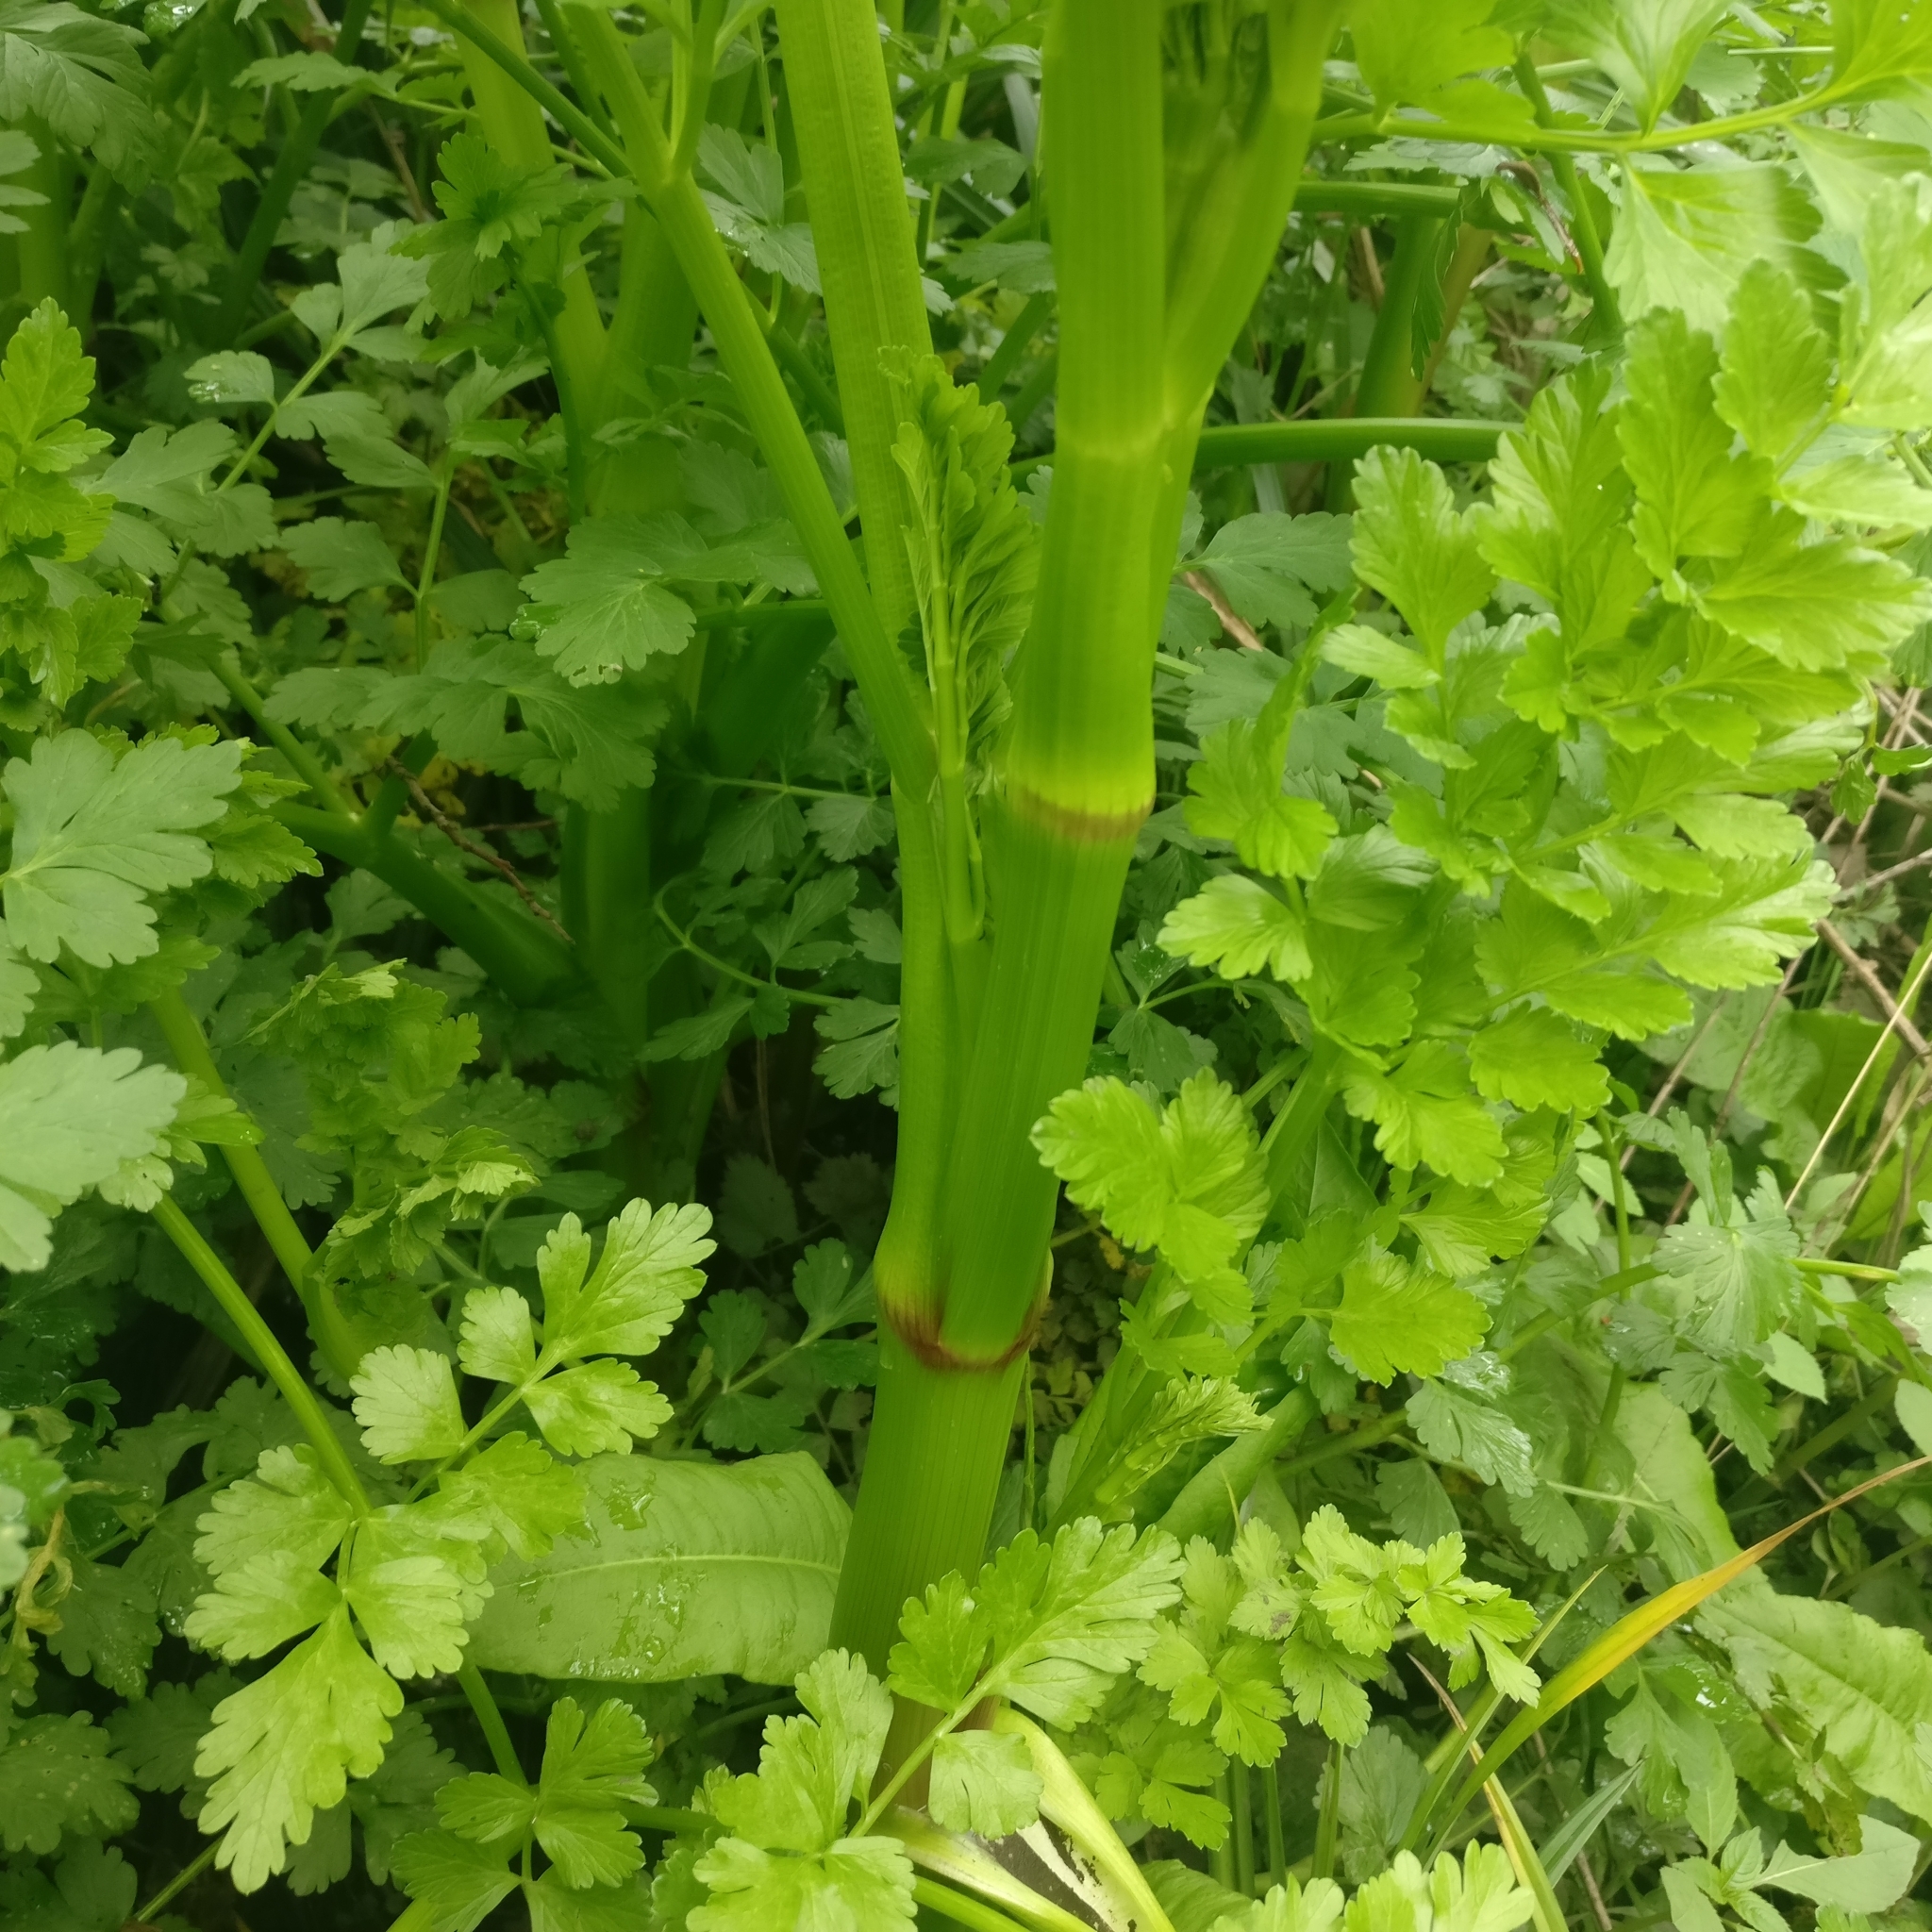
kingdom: Plantae
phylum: Tracheophyta
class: Magnoliopsida
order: Apiales
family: Apiaceae
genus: Oenanthe
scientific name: Oenanthe crocata
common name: Hemlock water-dropwort
